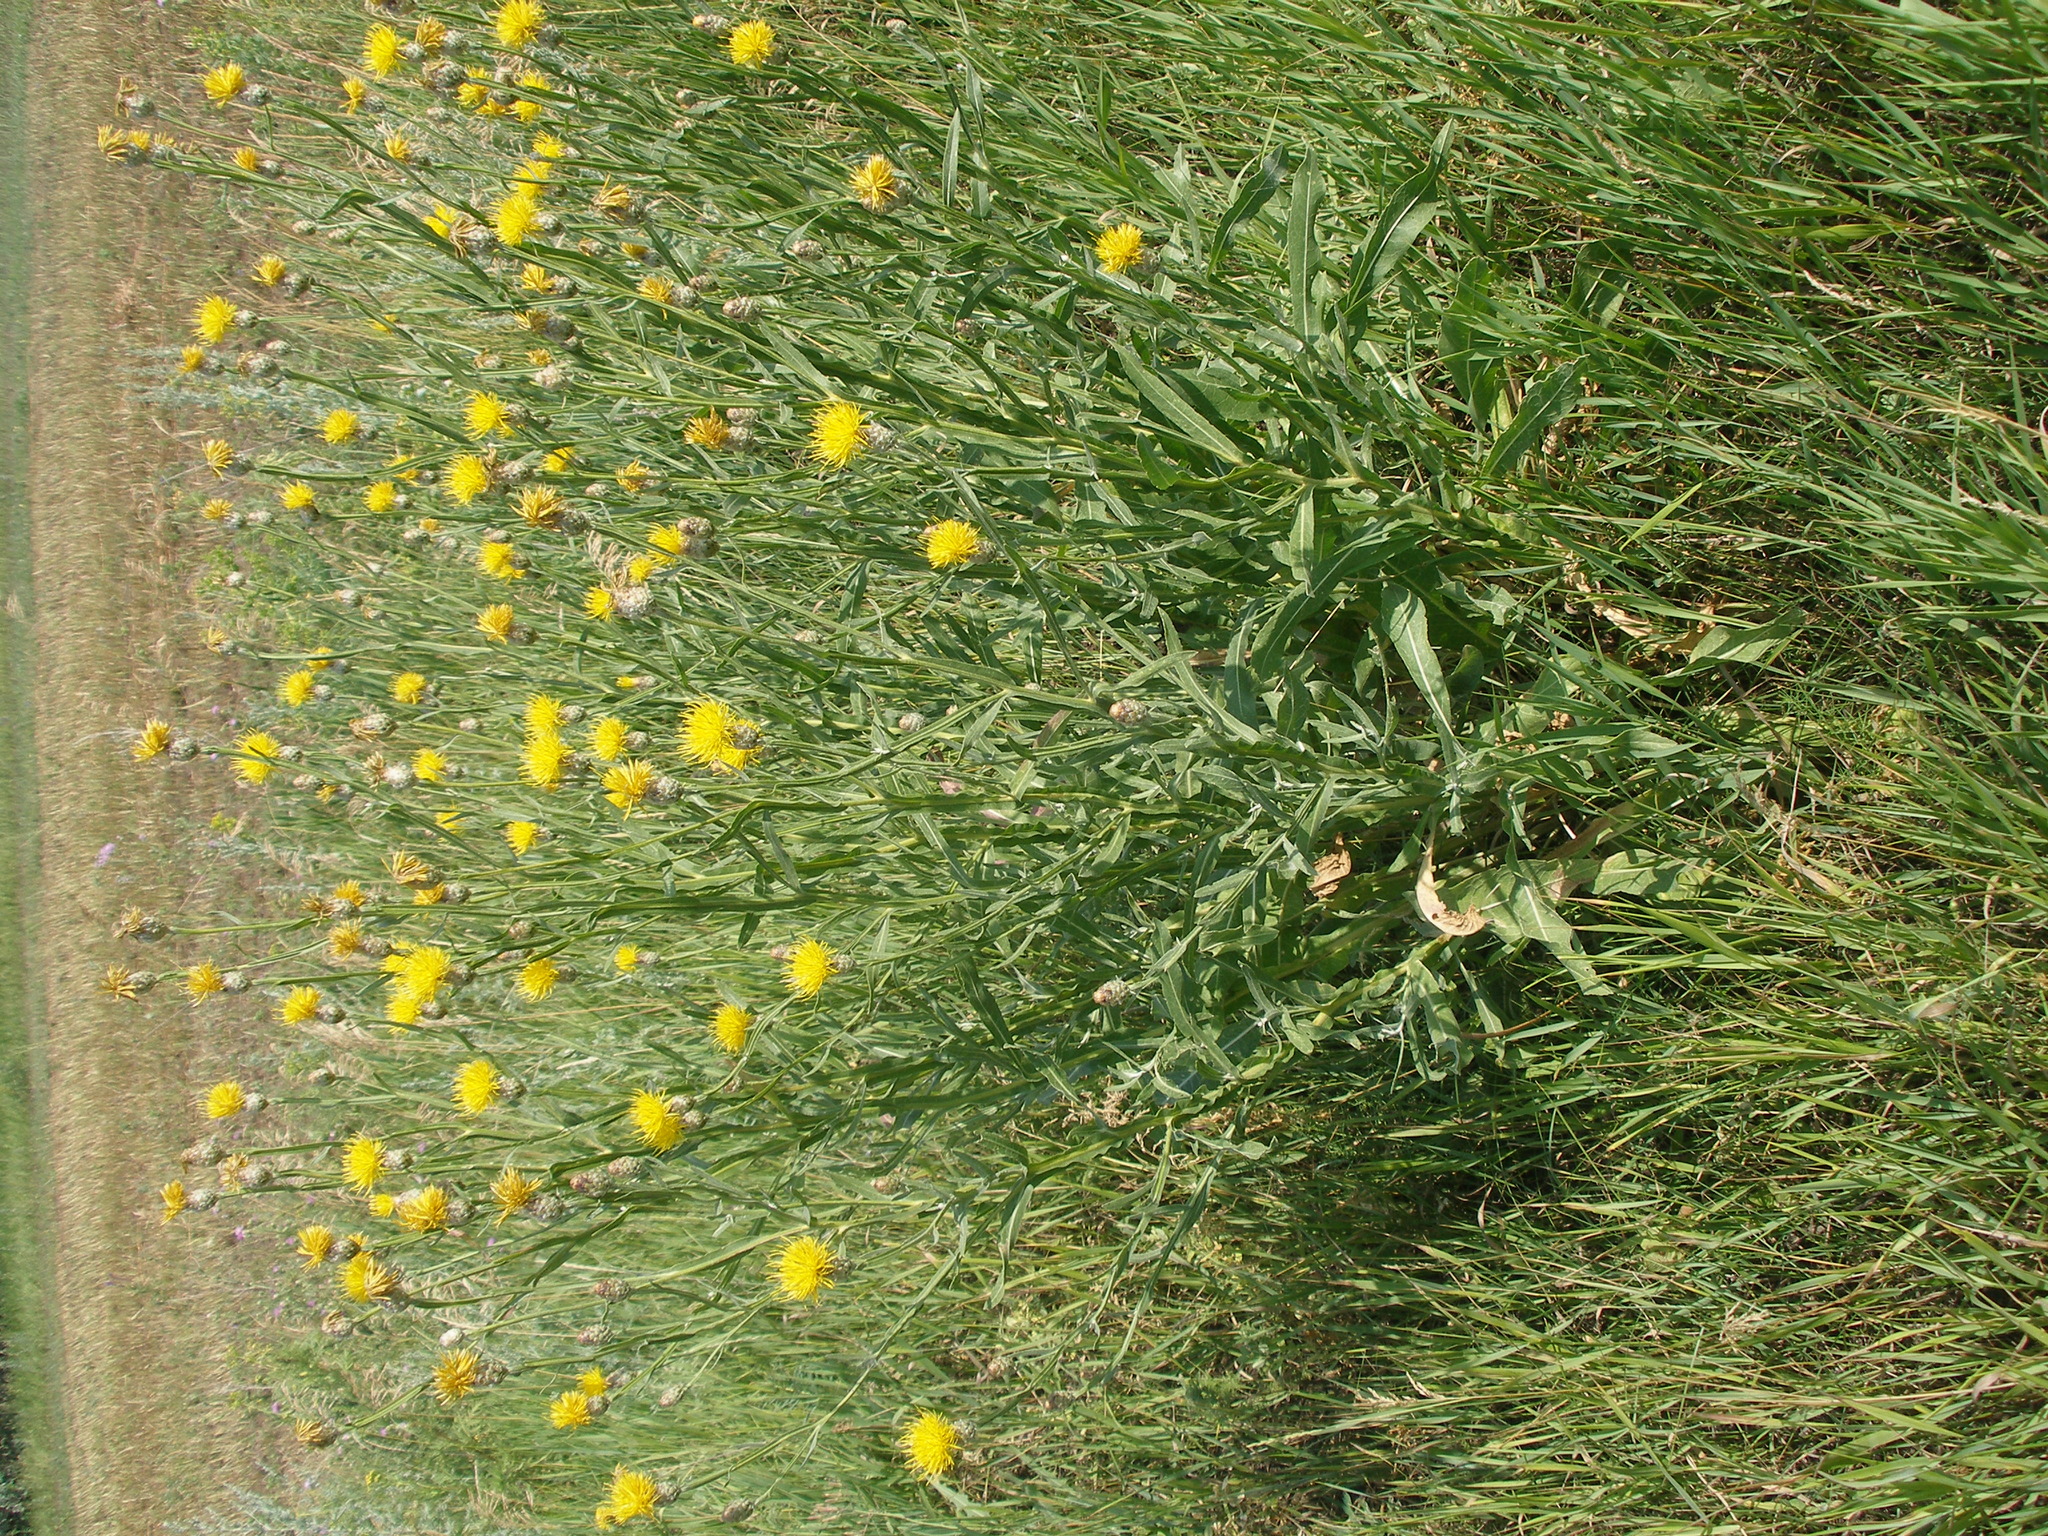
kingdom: Plantae
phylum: Tracheophyta
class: Magnoliopsida
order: Asterales
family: Asteraceae
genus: Centaurea
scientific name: Centaurea glastifolia
